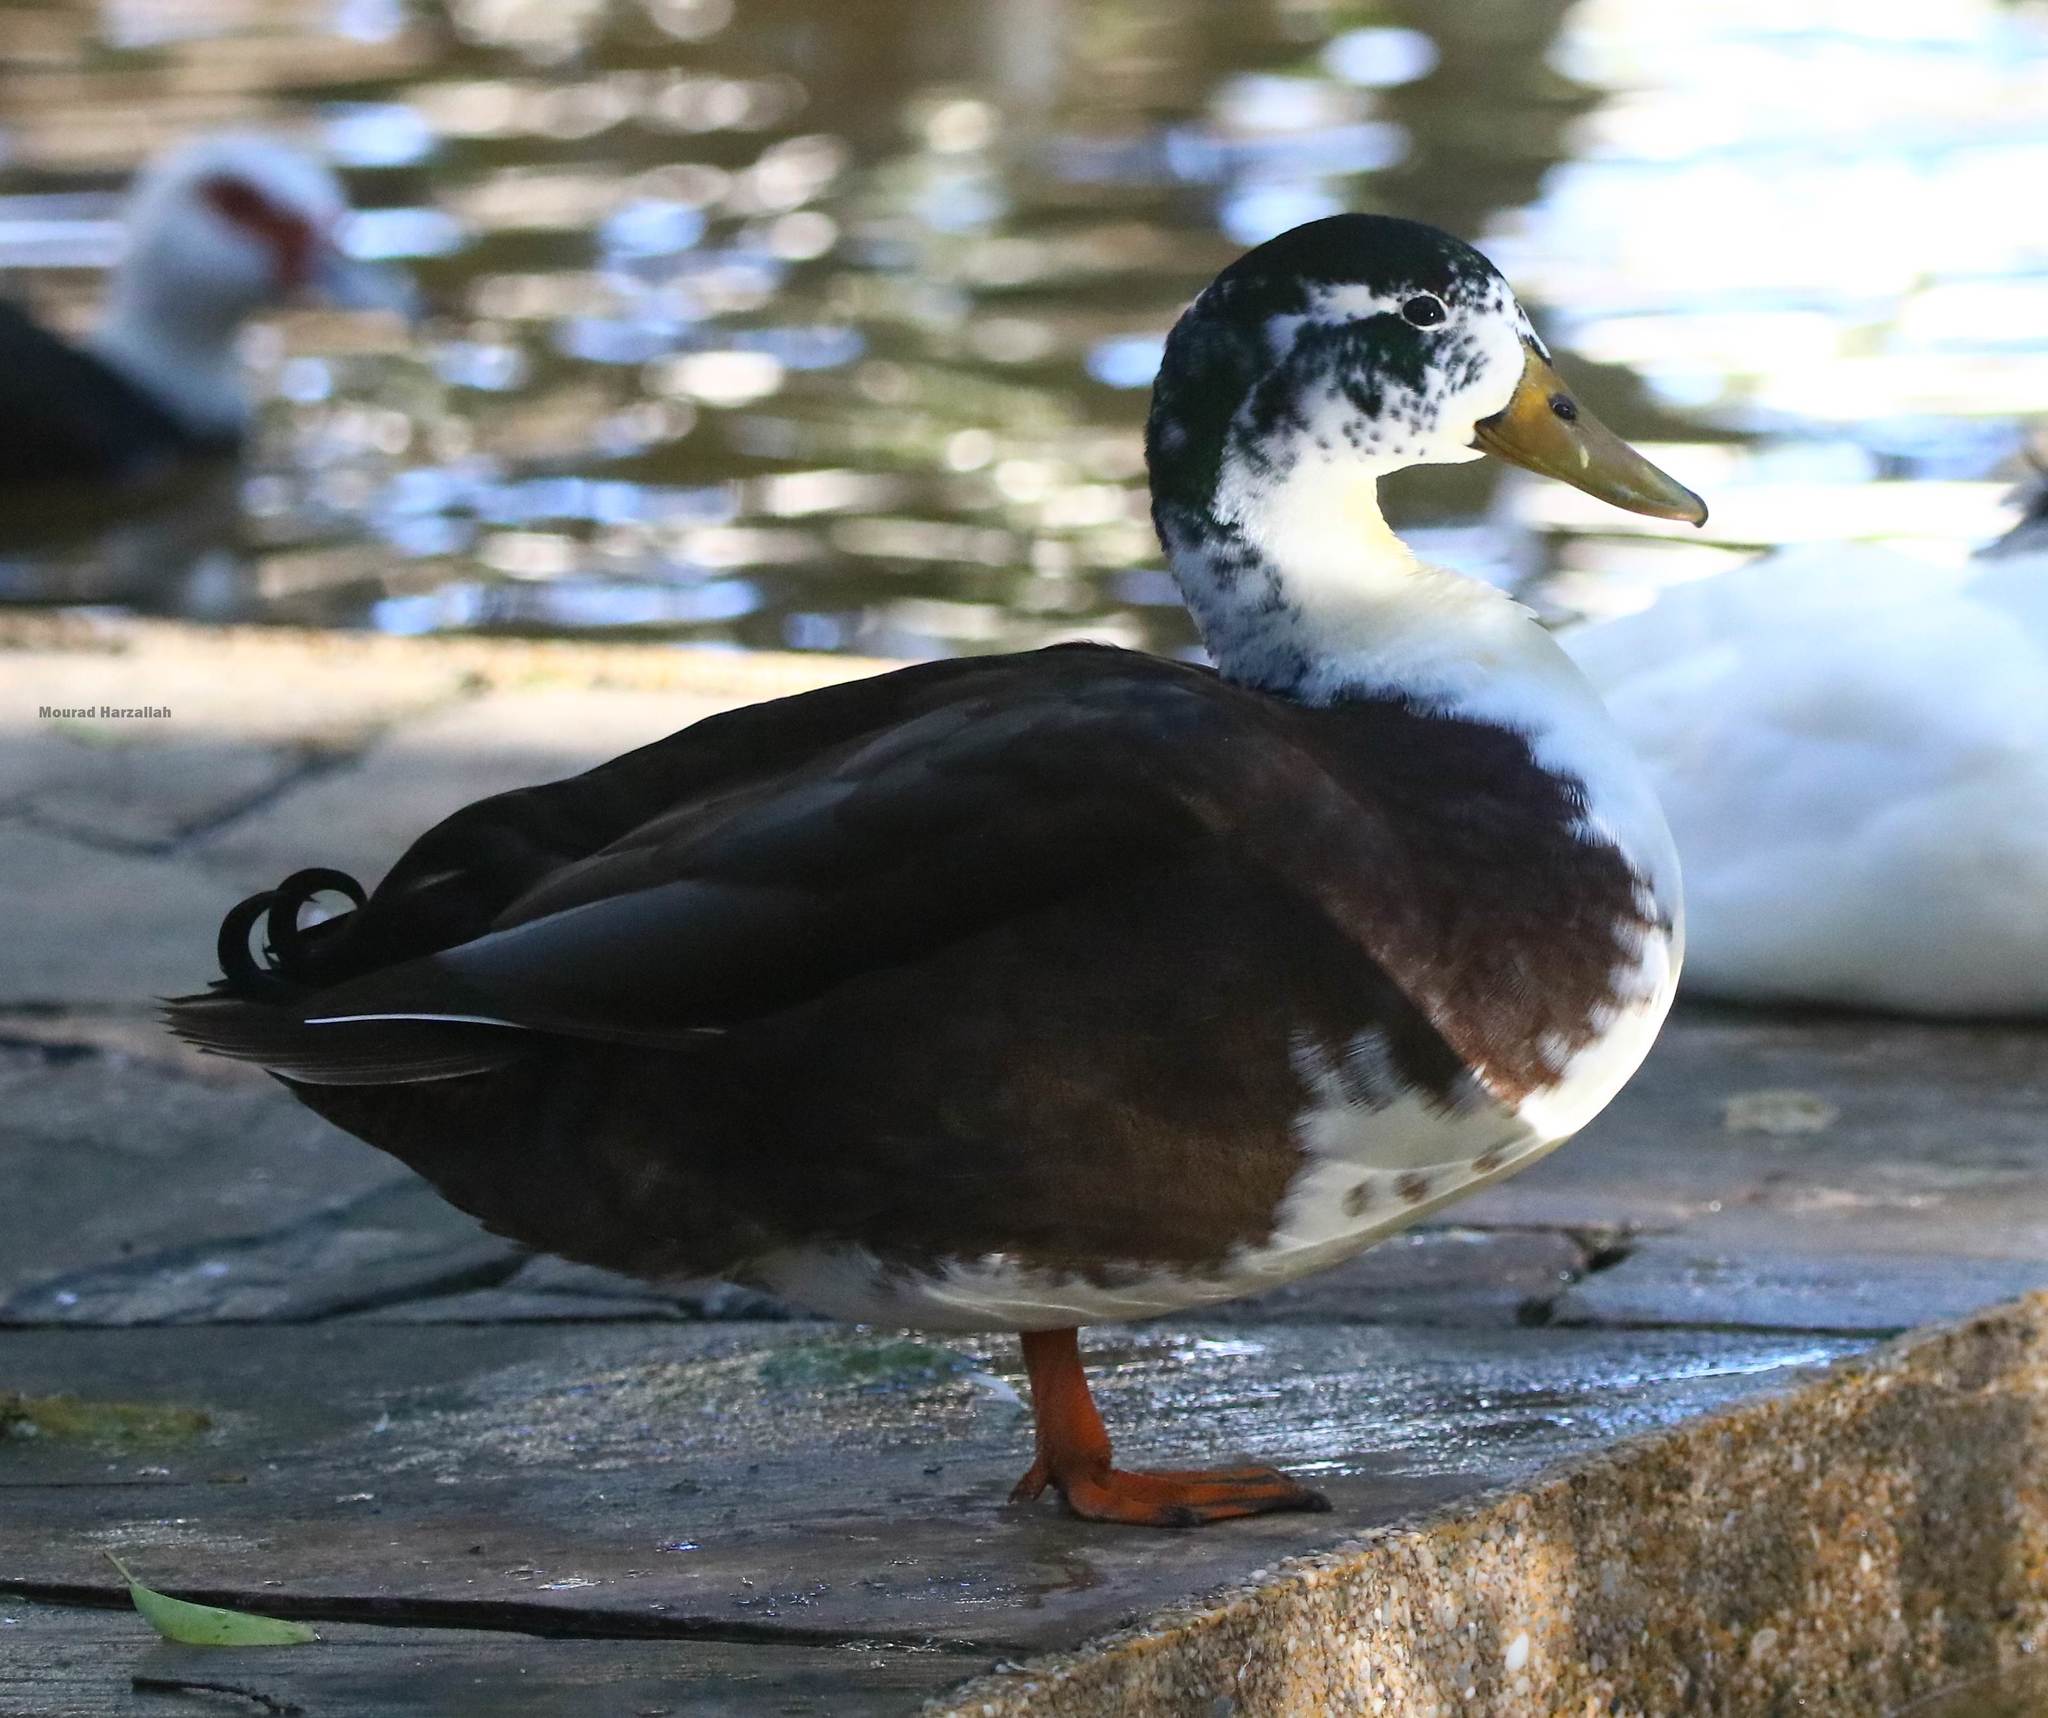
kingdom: Animalia
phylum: Chordata
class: Aves
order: Anseriformes
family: Anatidae
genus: Anas
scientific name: Anas platyrhynchos
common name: Mallard
